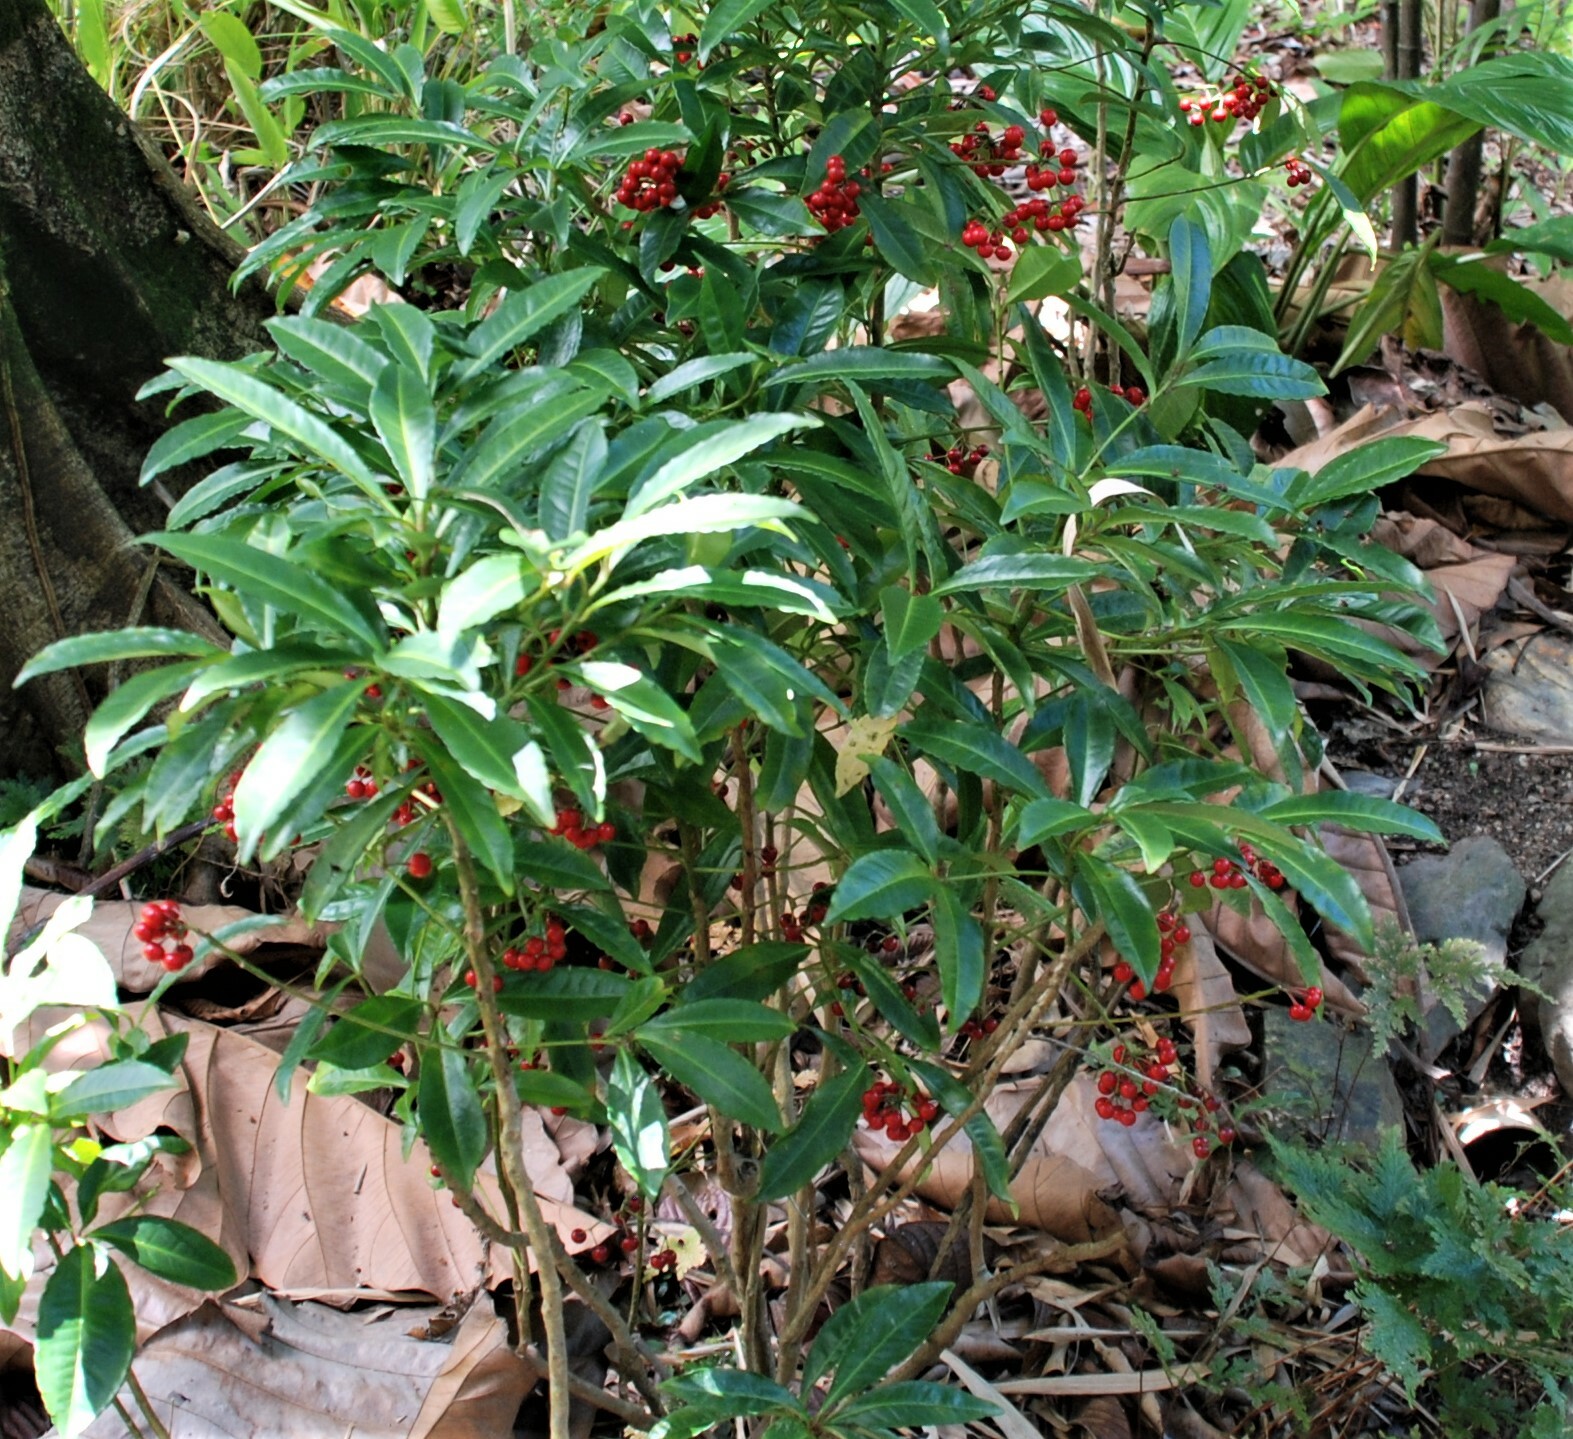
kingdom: Plantae
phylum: Tracheophyta
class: Magnoliopsida
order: Ericales
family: Primulaceae
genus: Ardisia
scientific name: Ardisia crenata
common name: Hen's eyes
